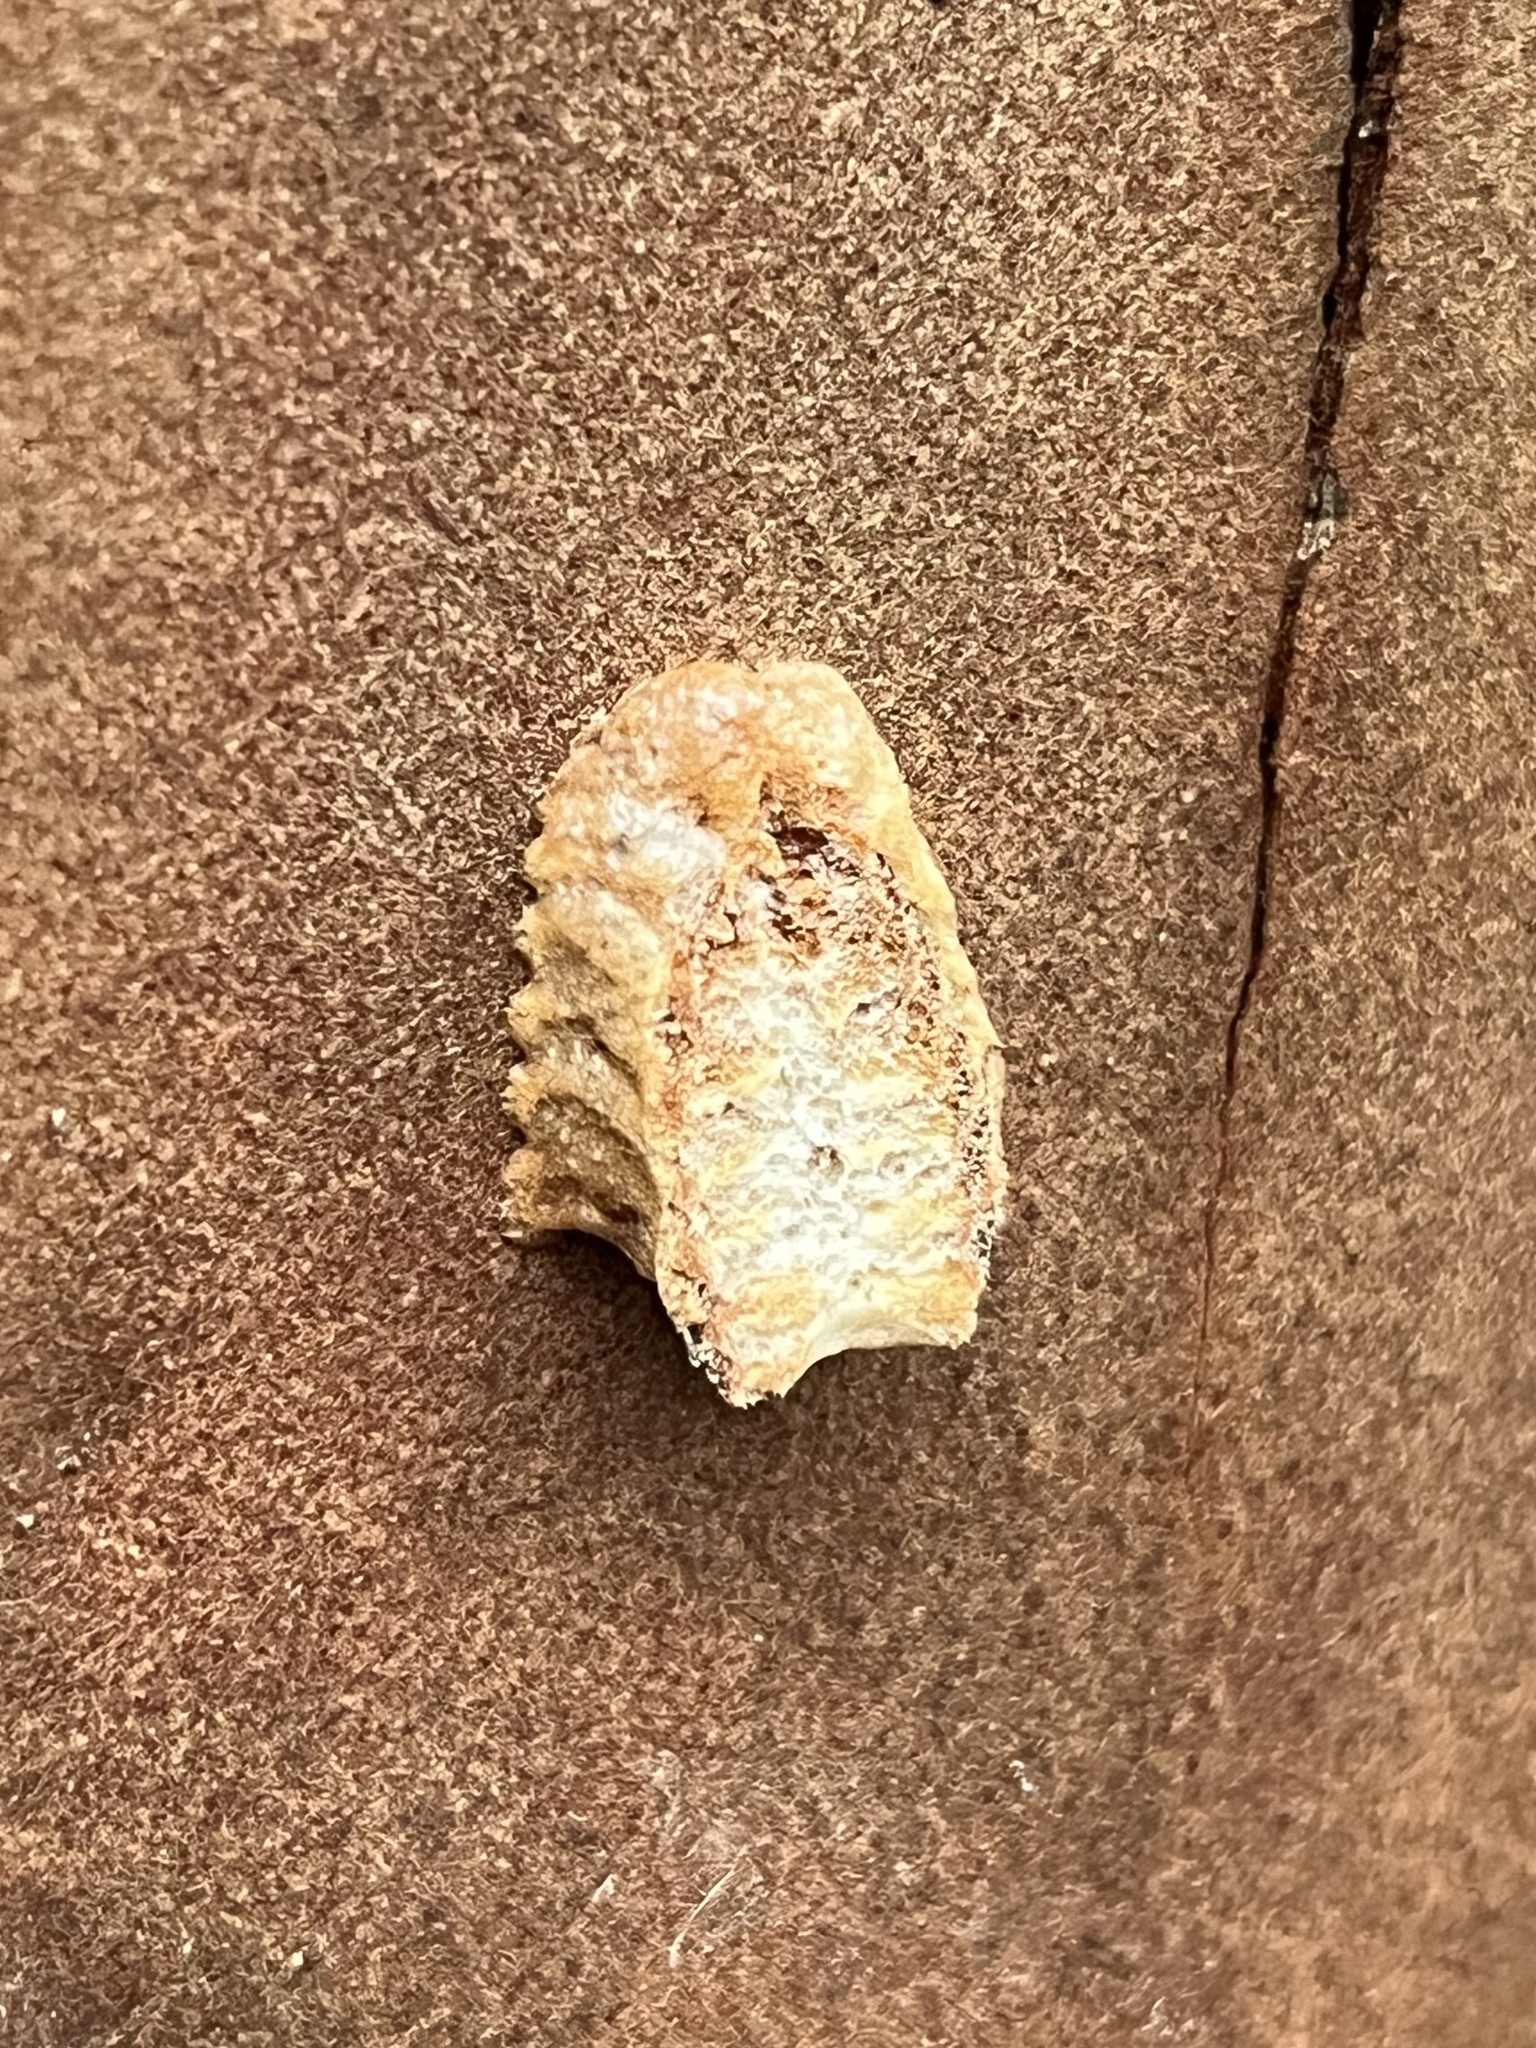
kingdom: Animalia
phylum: Arthropoda
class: Insecta
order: Mantodea
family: Epaphroditidae
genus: Gonatista
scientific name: Gonatista grisea
